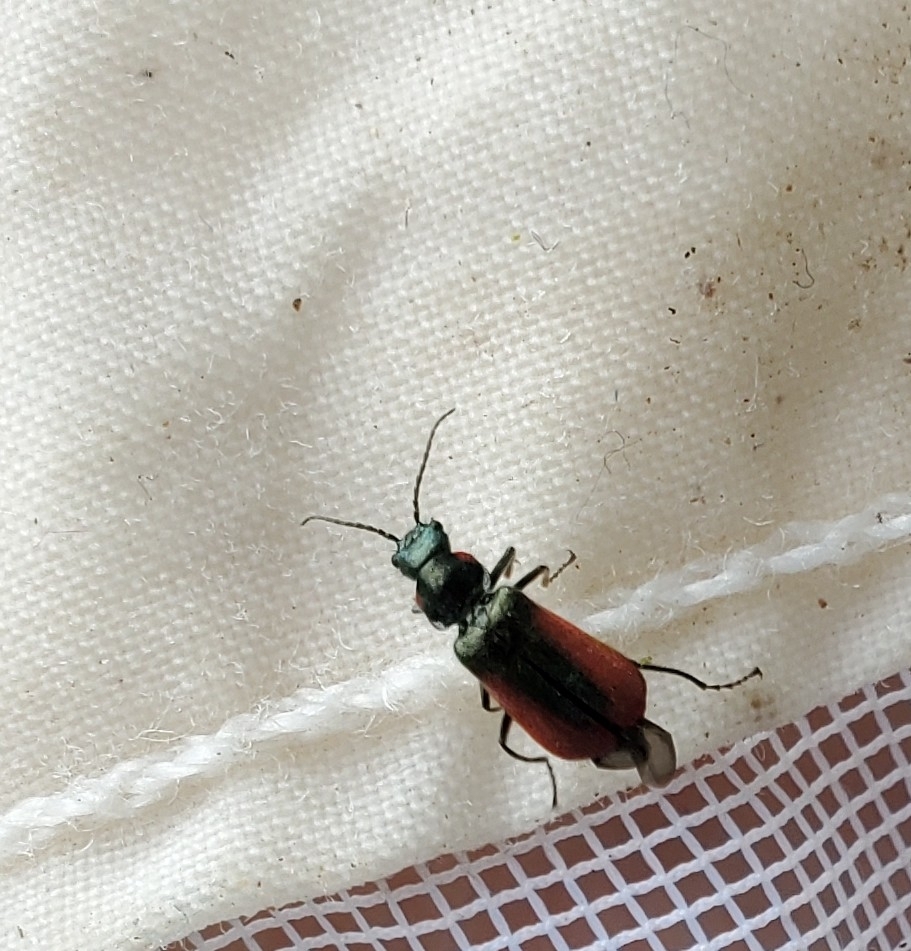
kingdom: Animalia
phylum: Arthropoda
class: Insecta
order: Coleoptera
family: Melyridae
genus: Malachius
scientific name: Malachius aeneus
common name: Scarlet malachite beetle
